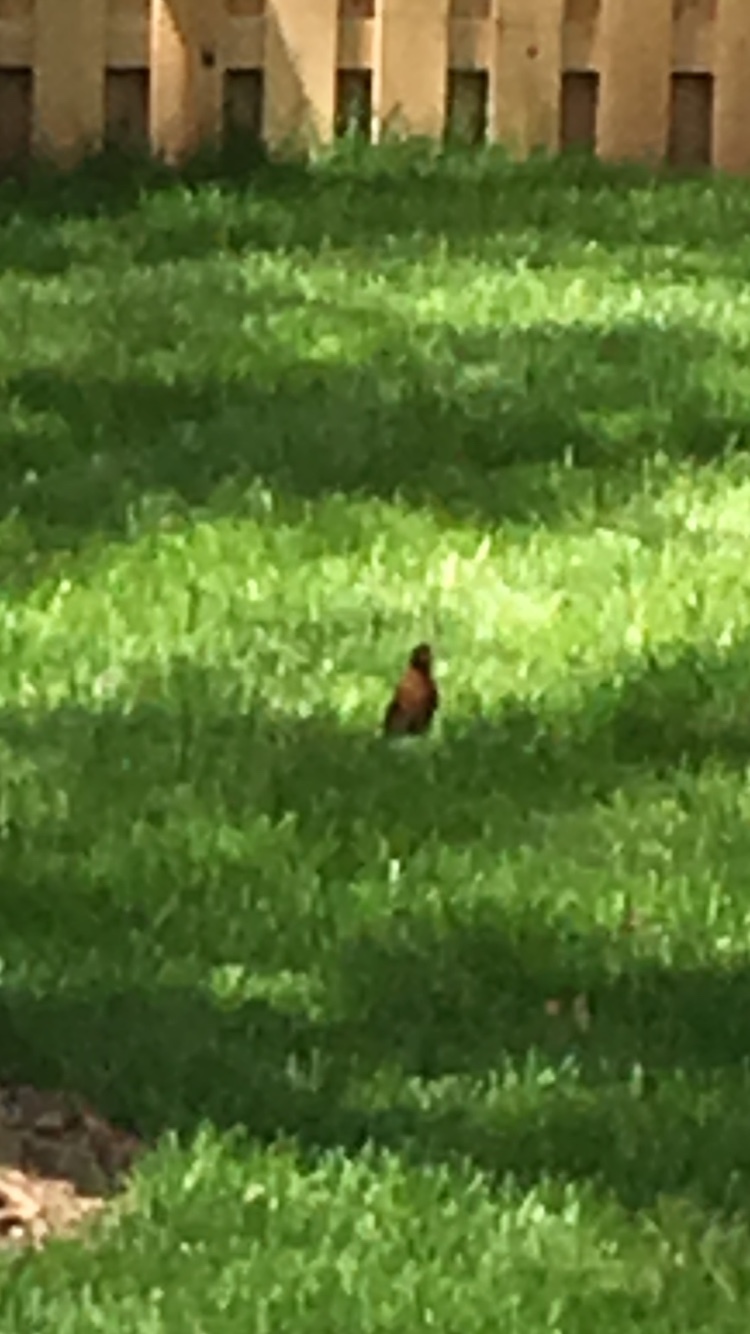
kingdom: Animalia
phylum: Chordata
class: Aves
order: Passeriformes
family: Turdidae
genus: Turdus
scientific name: Turdus migratorius
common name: American robin
